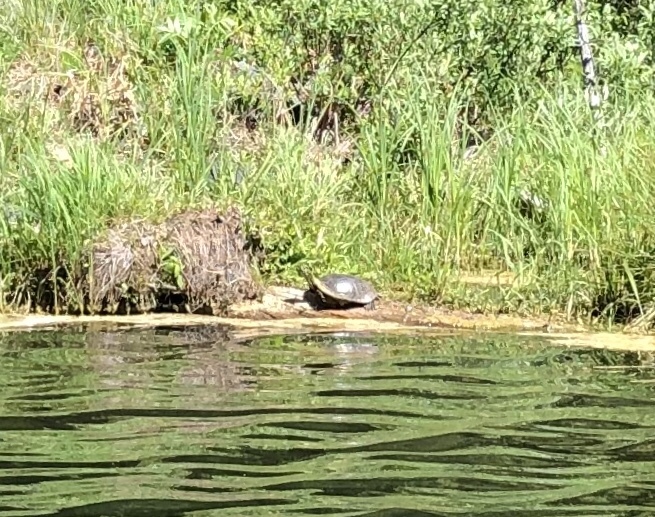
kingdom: Animalia
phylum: Chordata
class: Testudines
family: Emydidae
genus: Chrysemys
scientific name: Chrysemys picta
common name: Painted turtle
